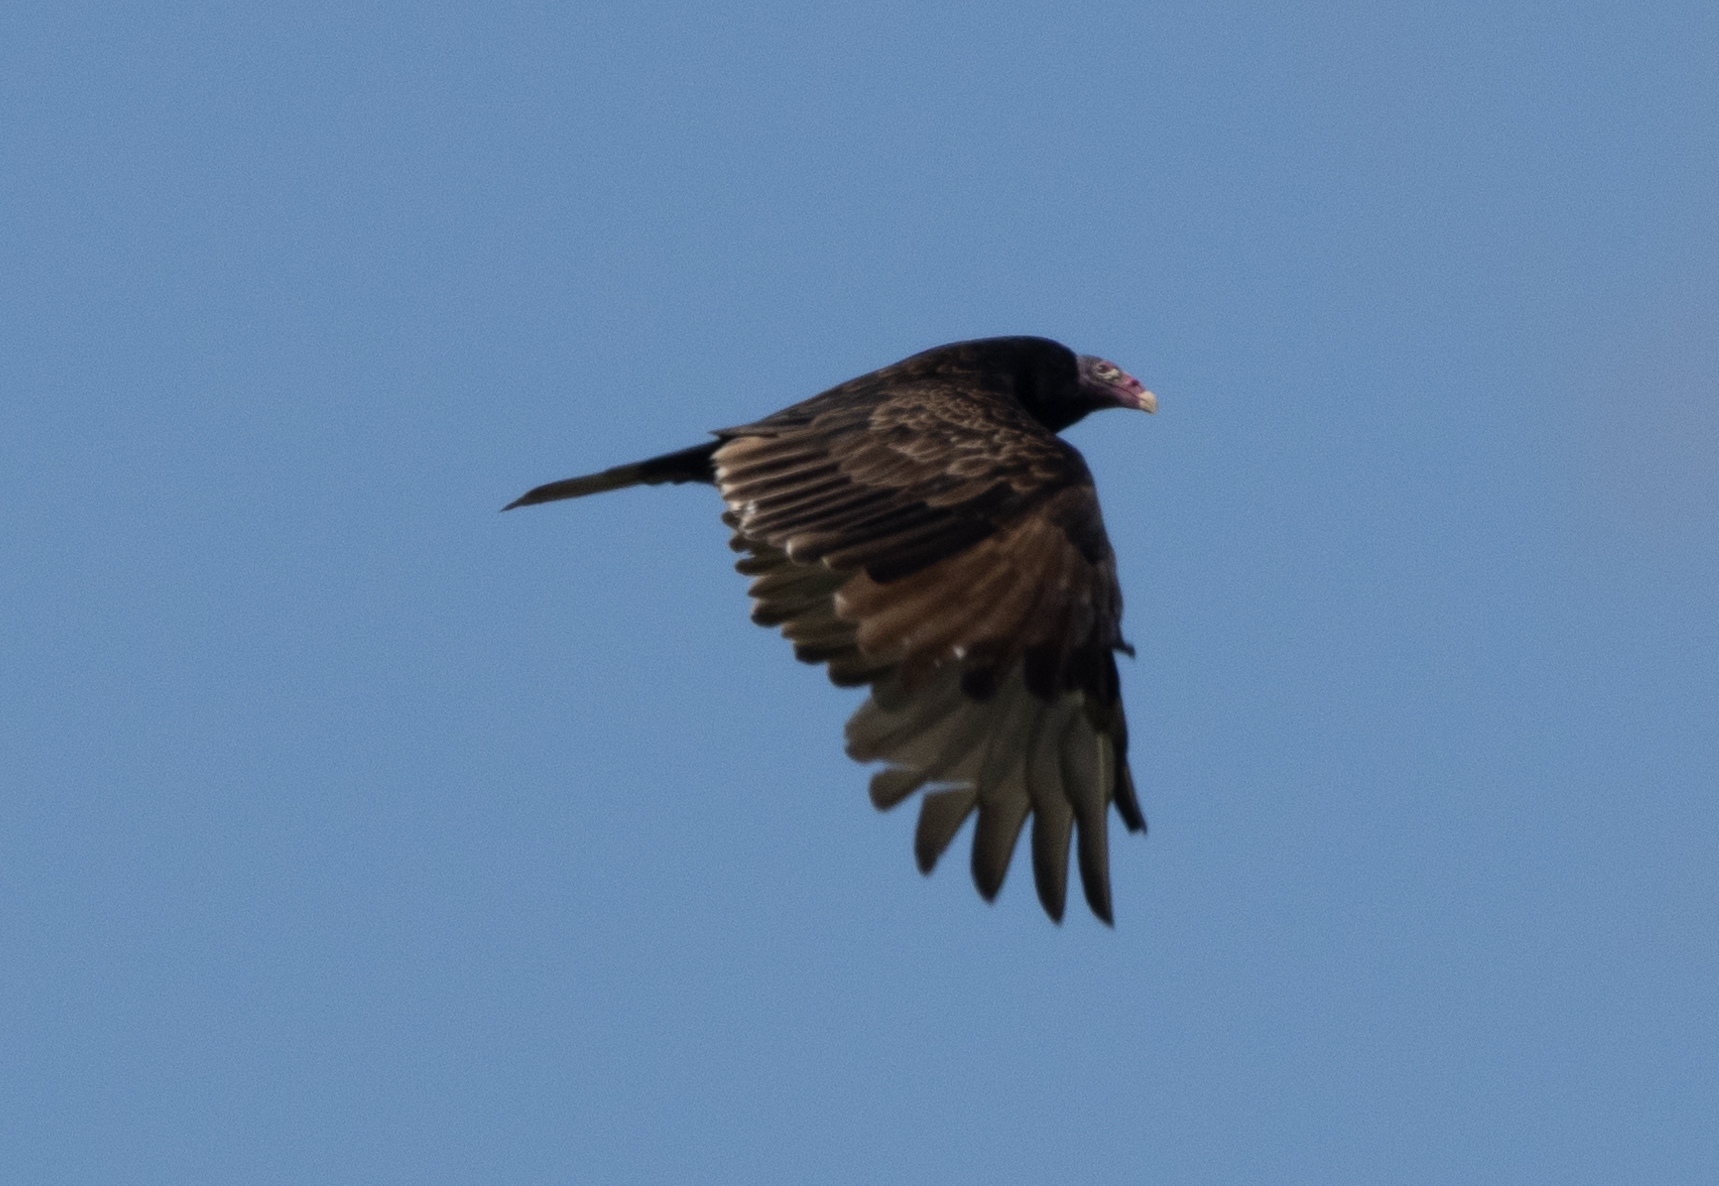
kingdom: Animalia
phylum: Chordata
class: Aves
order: Accipitriformes
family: Cathartidae
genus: Cathartes
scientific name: Cathartes aura
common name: Turkey vulture
